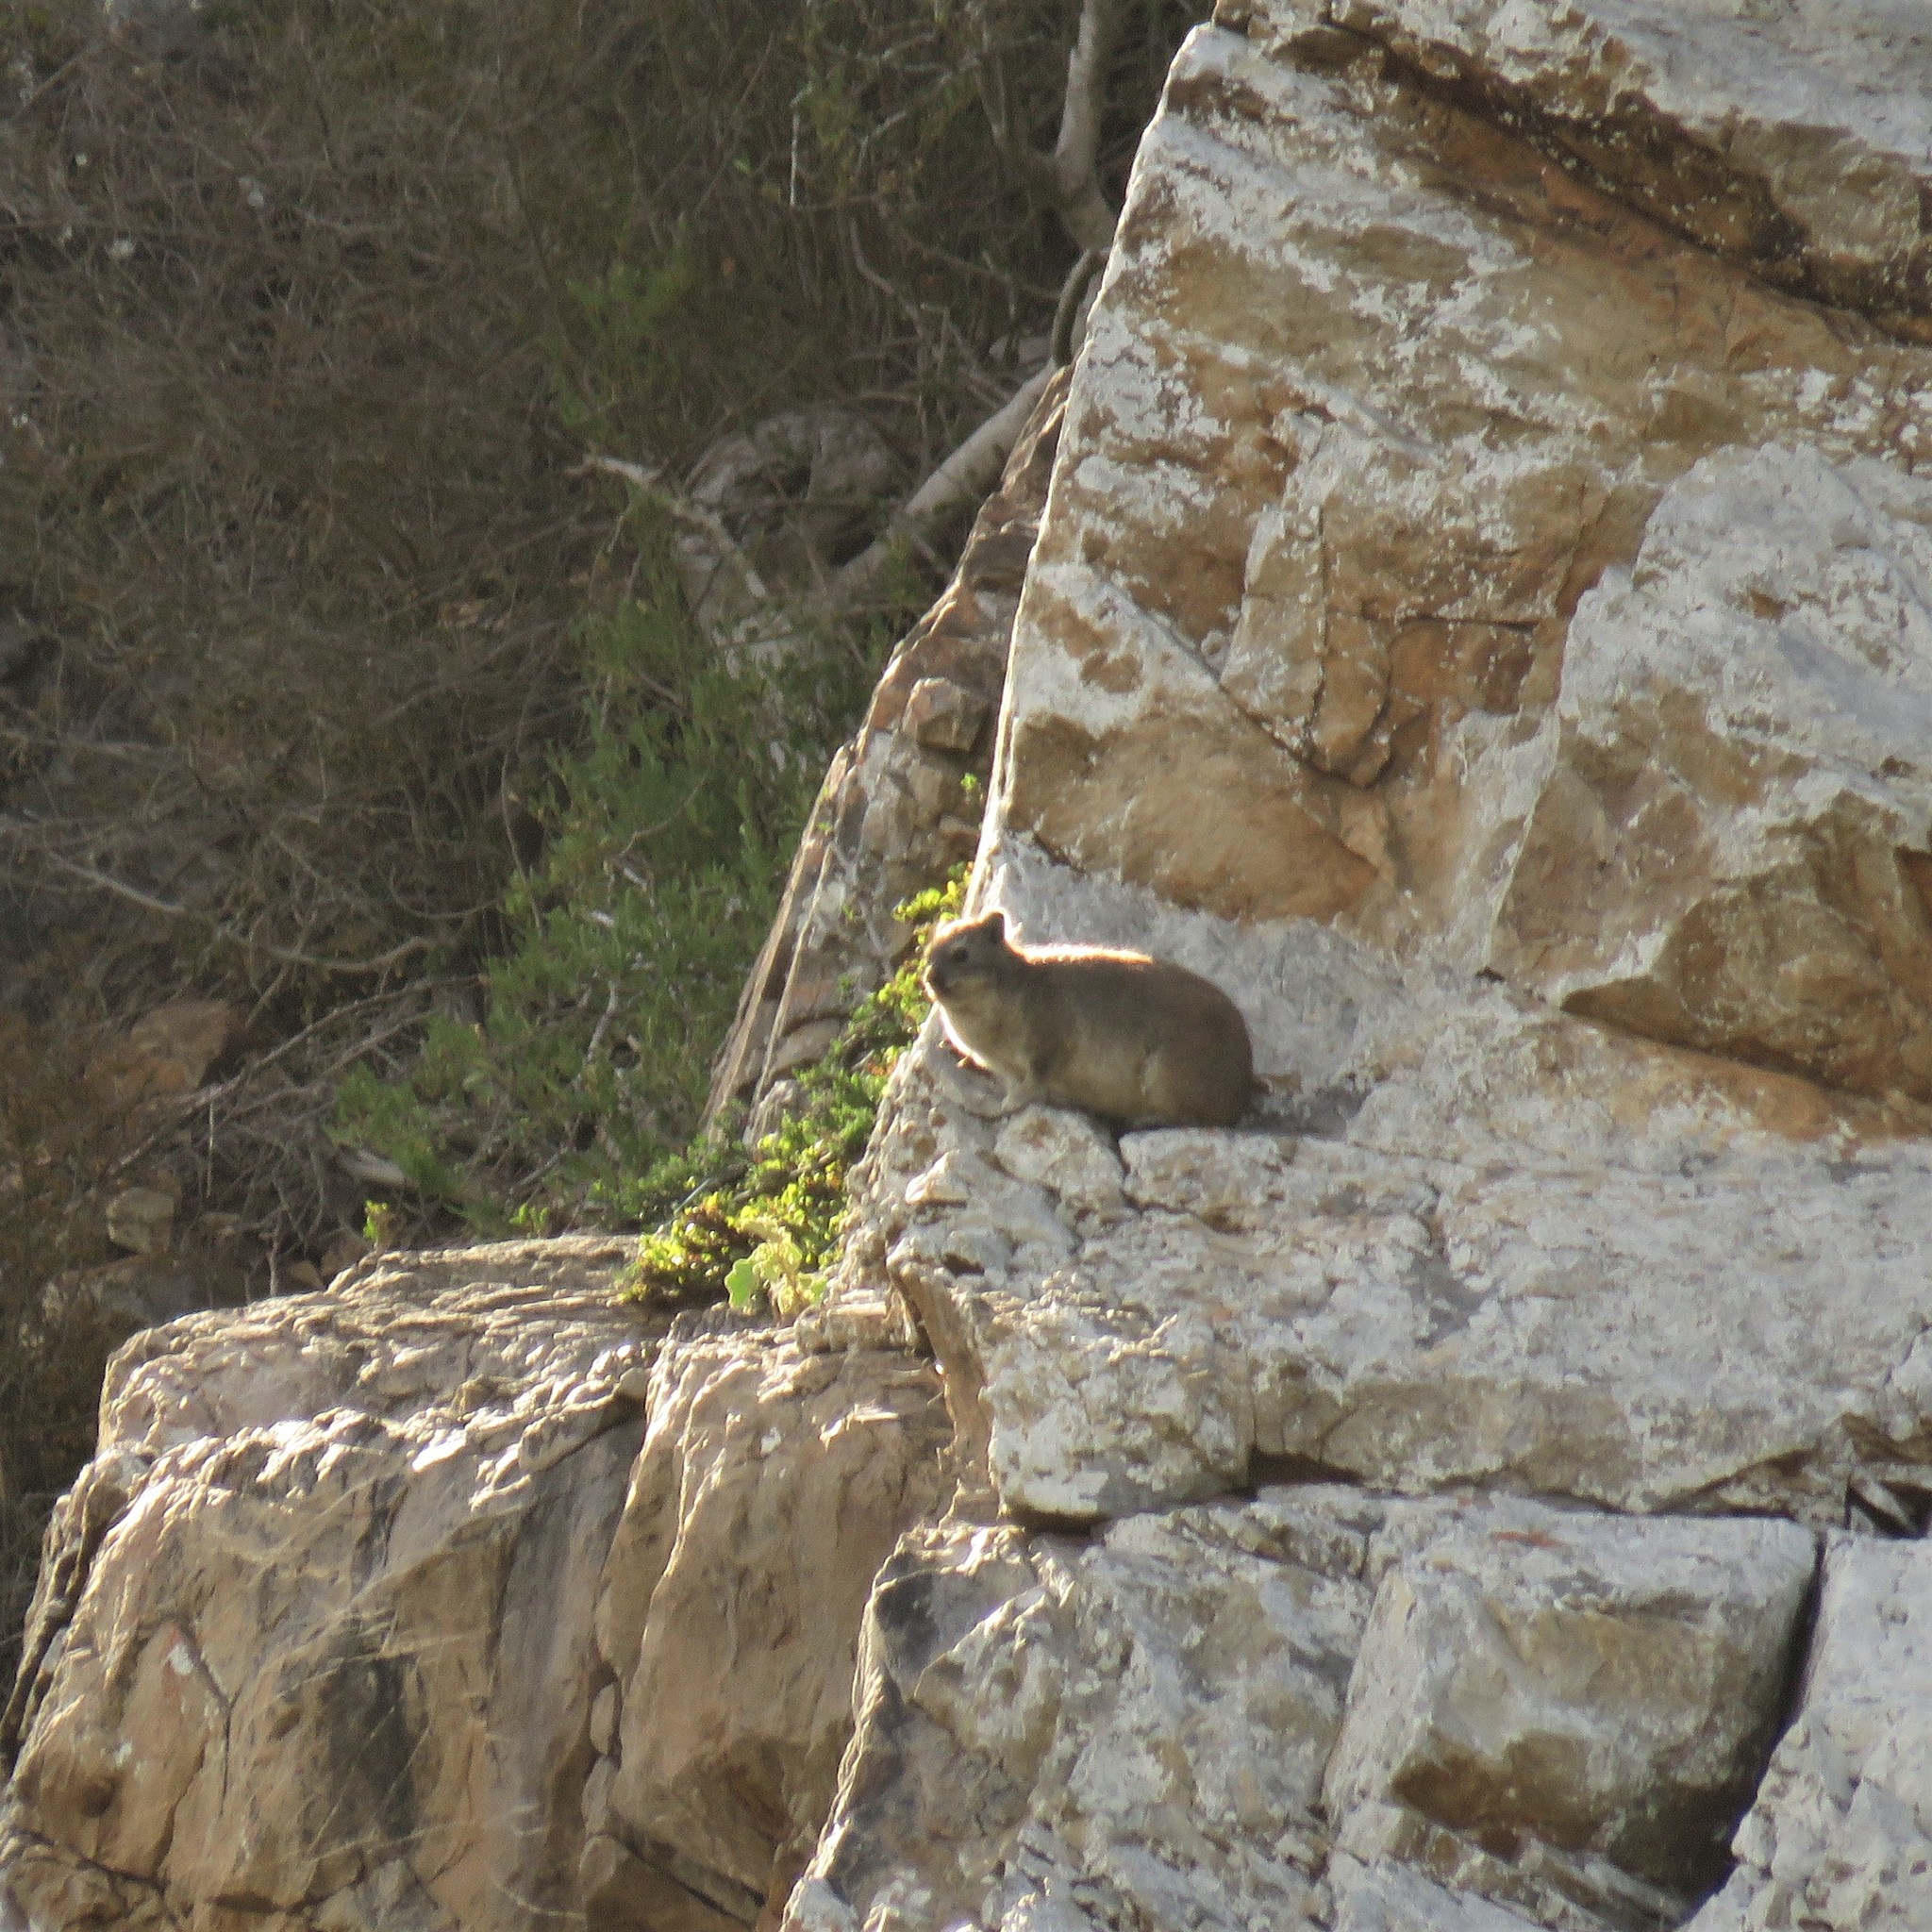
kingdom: Animalia
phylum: Chordata
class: Mammalia
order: Hyracoidea
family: Procaviidae
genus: Procavia
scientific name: Procavia capensis
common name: Rock hyrax
